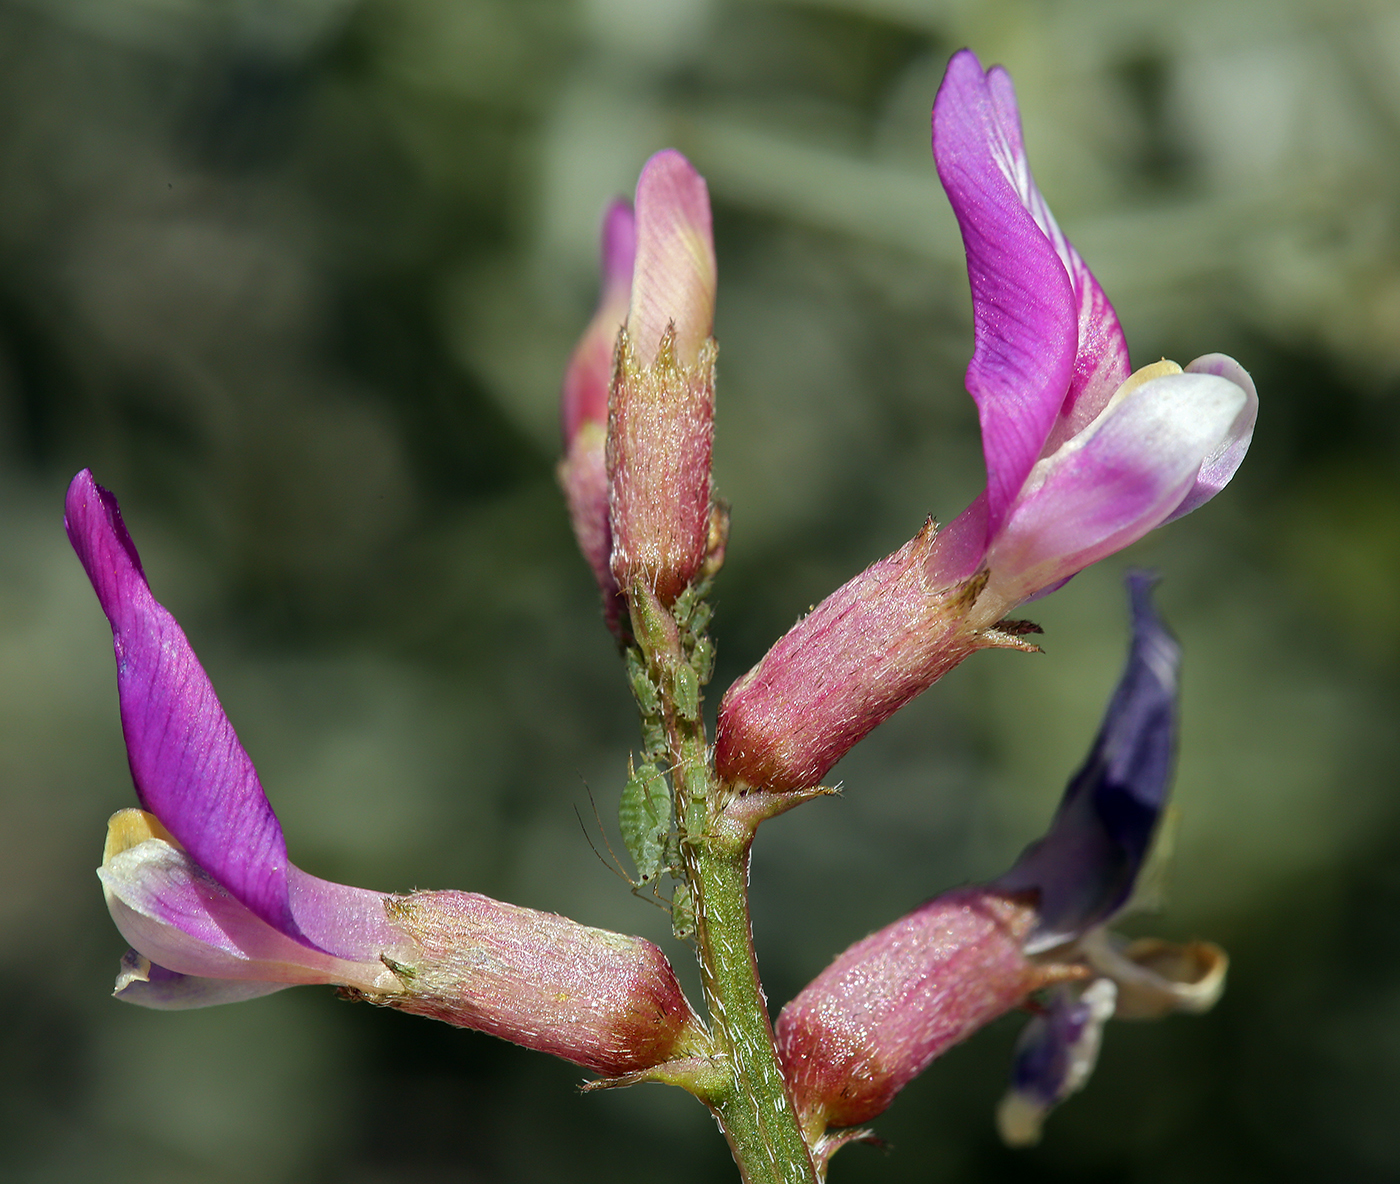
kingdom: Plantae
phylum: Tracheophyta
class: Magnoliopsida
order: Fabales
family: Fabaceae
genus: Astragalus
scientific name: Astragalus casei
